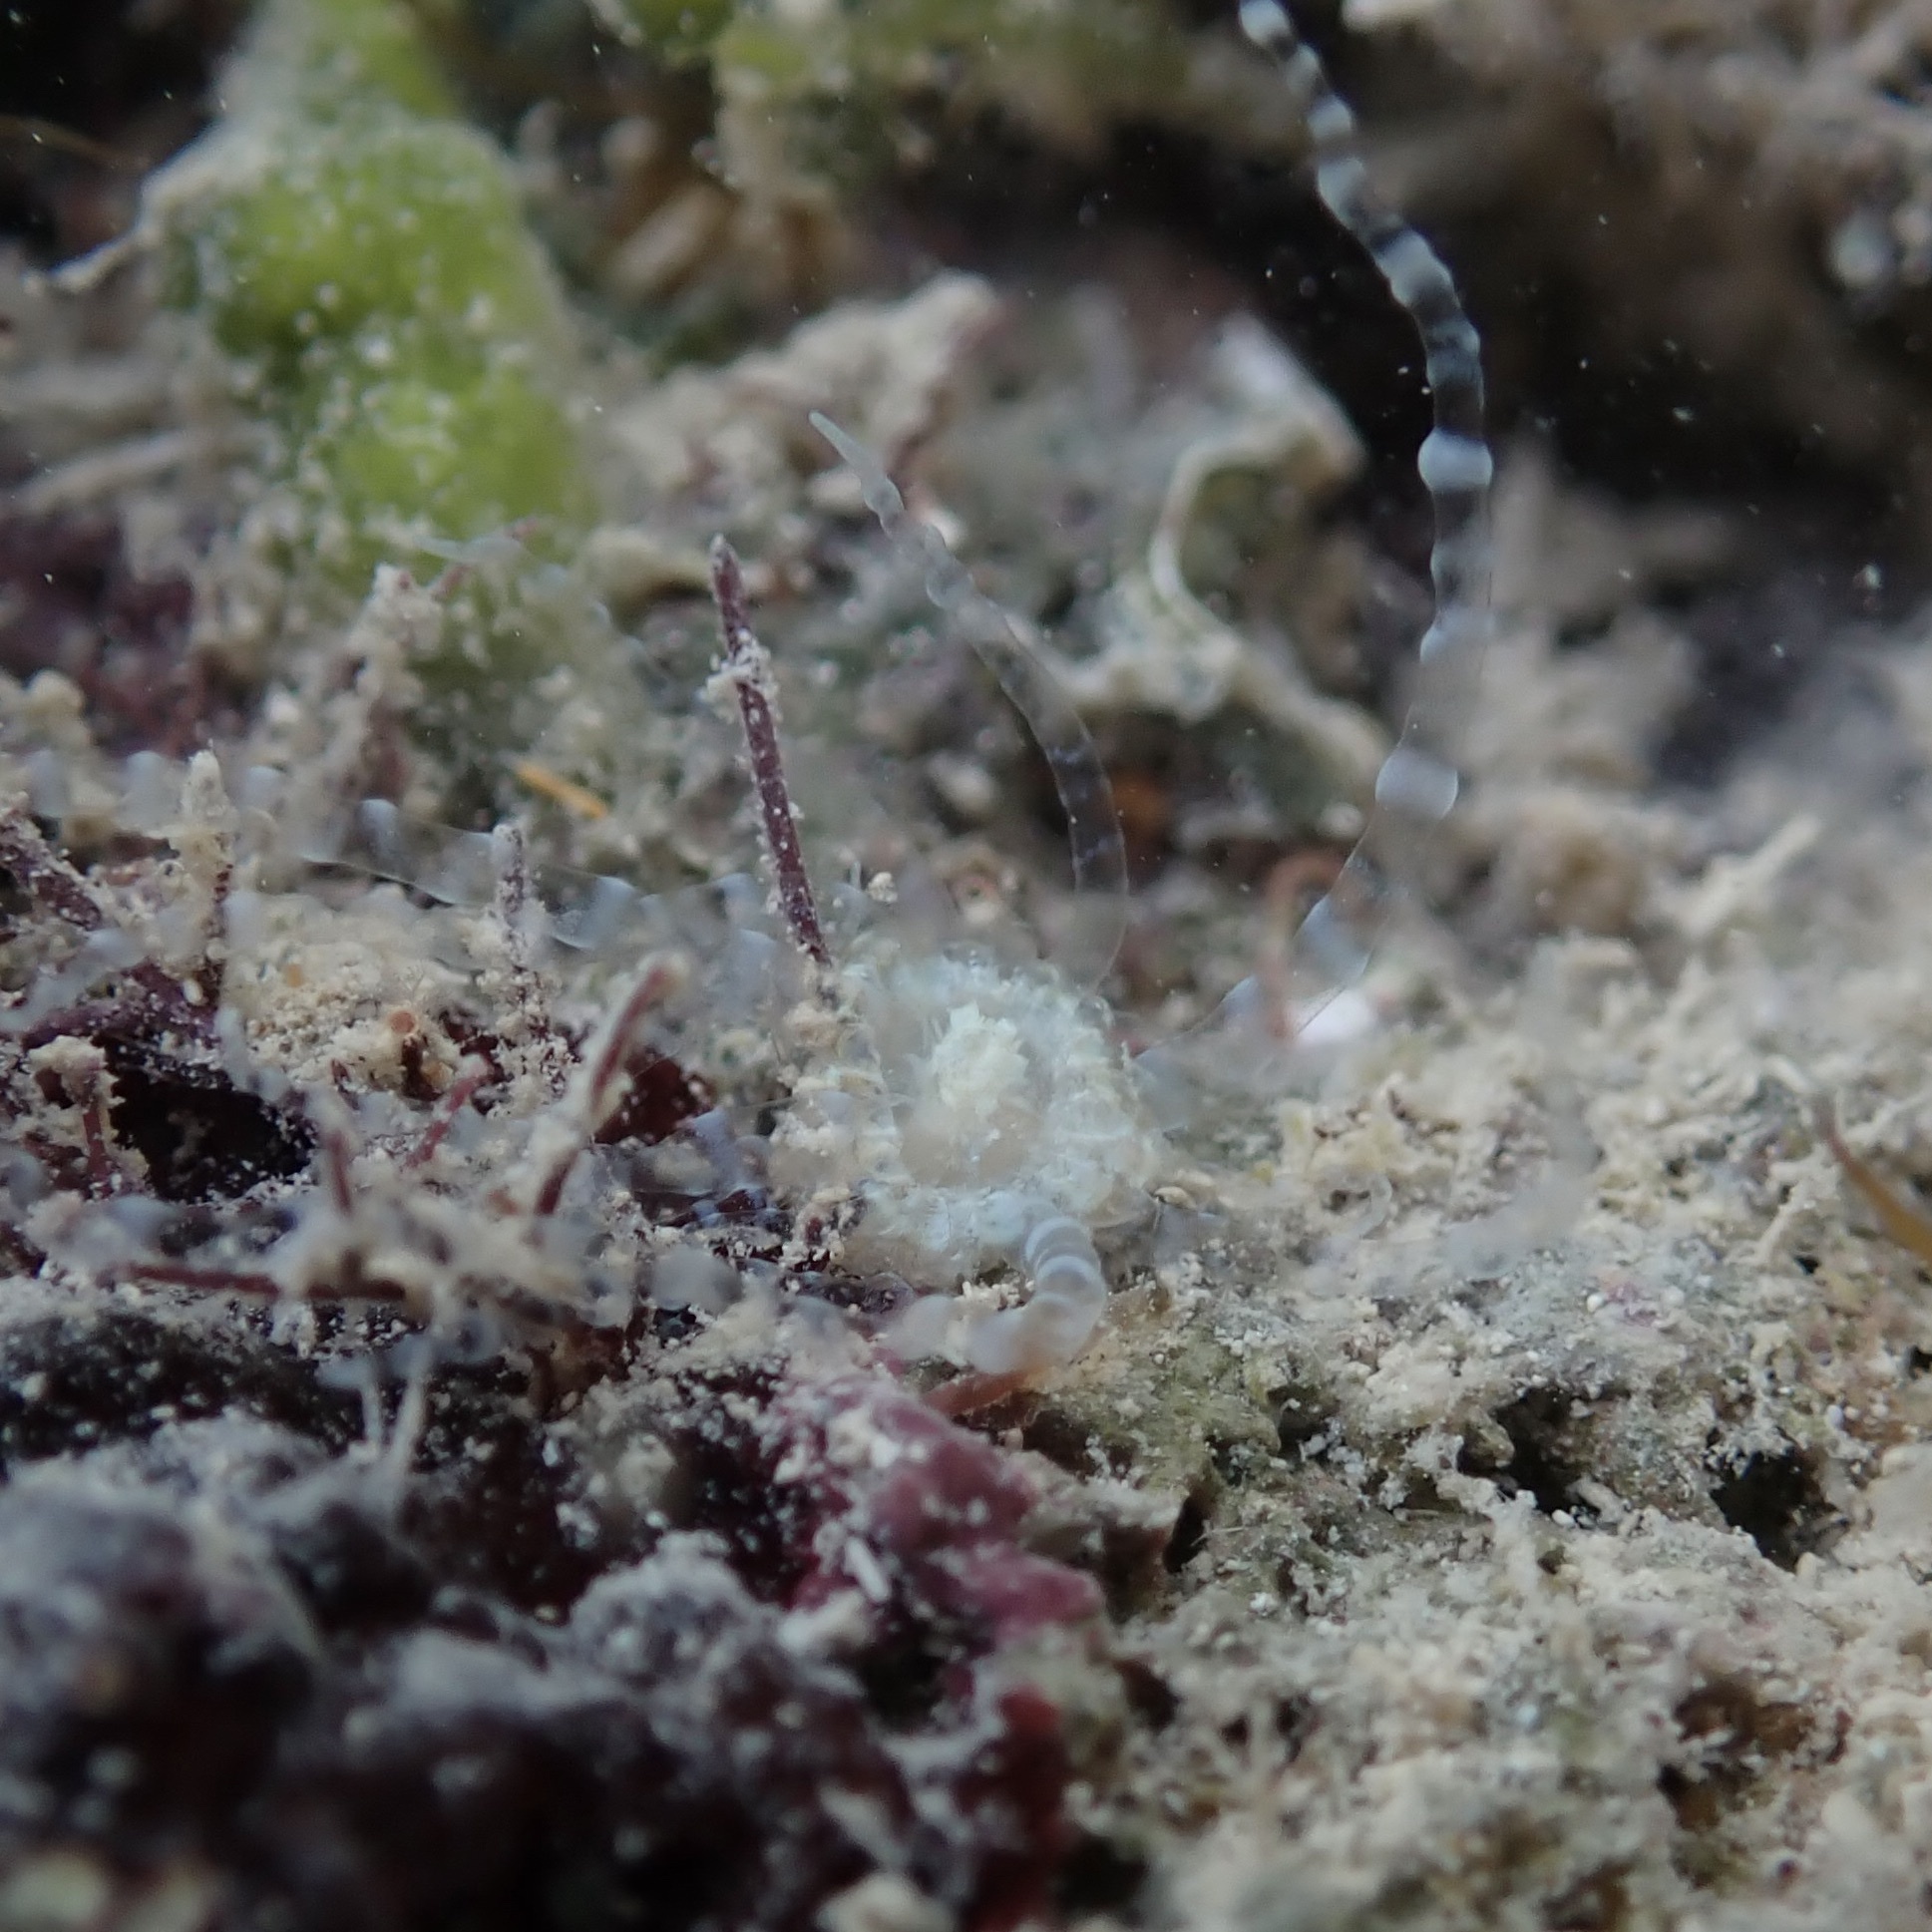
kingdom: Animalia
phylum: Cnidaria
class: Anthozoa
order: Actiniaria
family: Aiptasiidae
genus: Bartholomea
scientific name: Bartholomea annulata
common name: Corkscrew anemone
